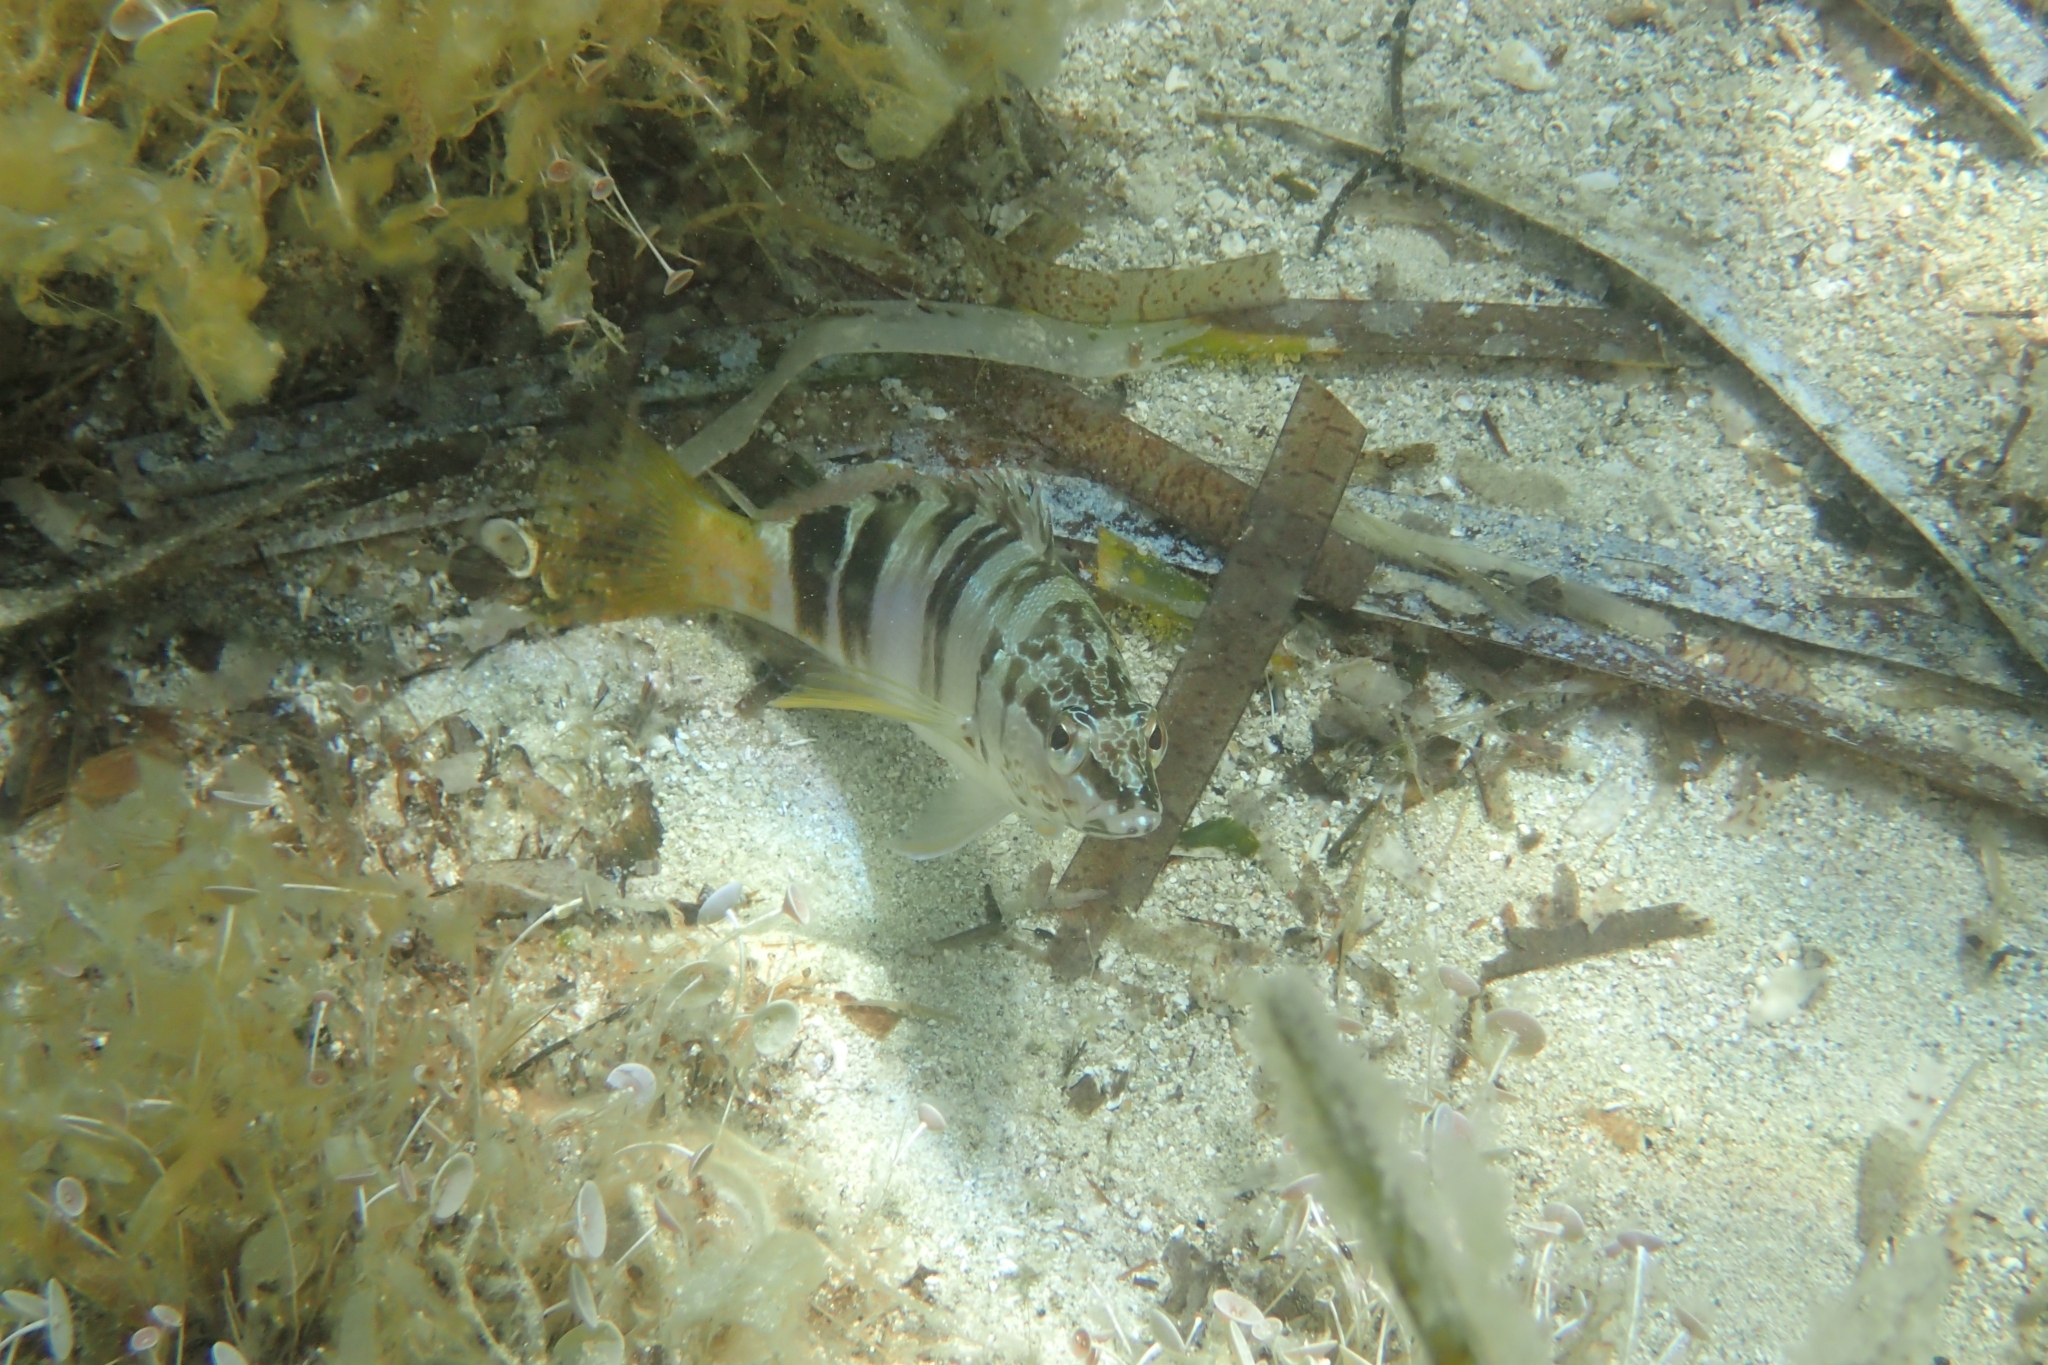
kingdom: Animalia
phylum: Chordata
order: Perciformes
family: Serranidae
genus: Serranus
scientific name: Serranus scriba
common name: Painted comber
